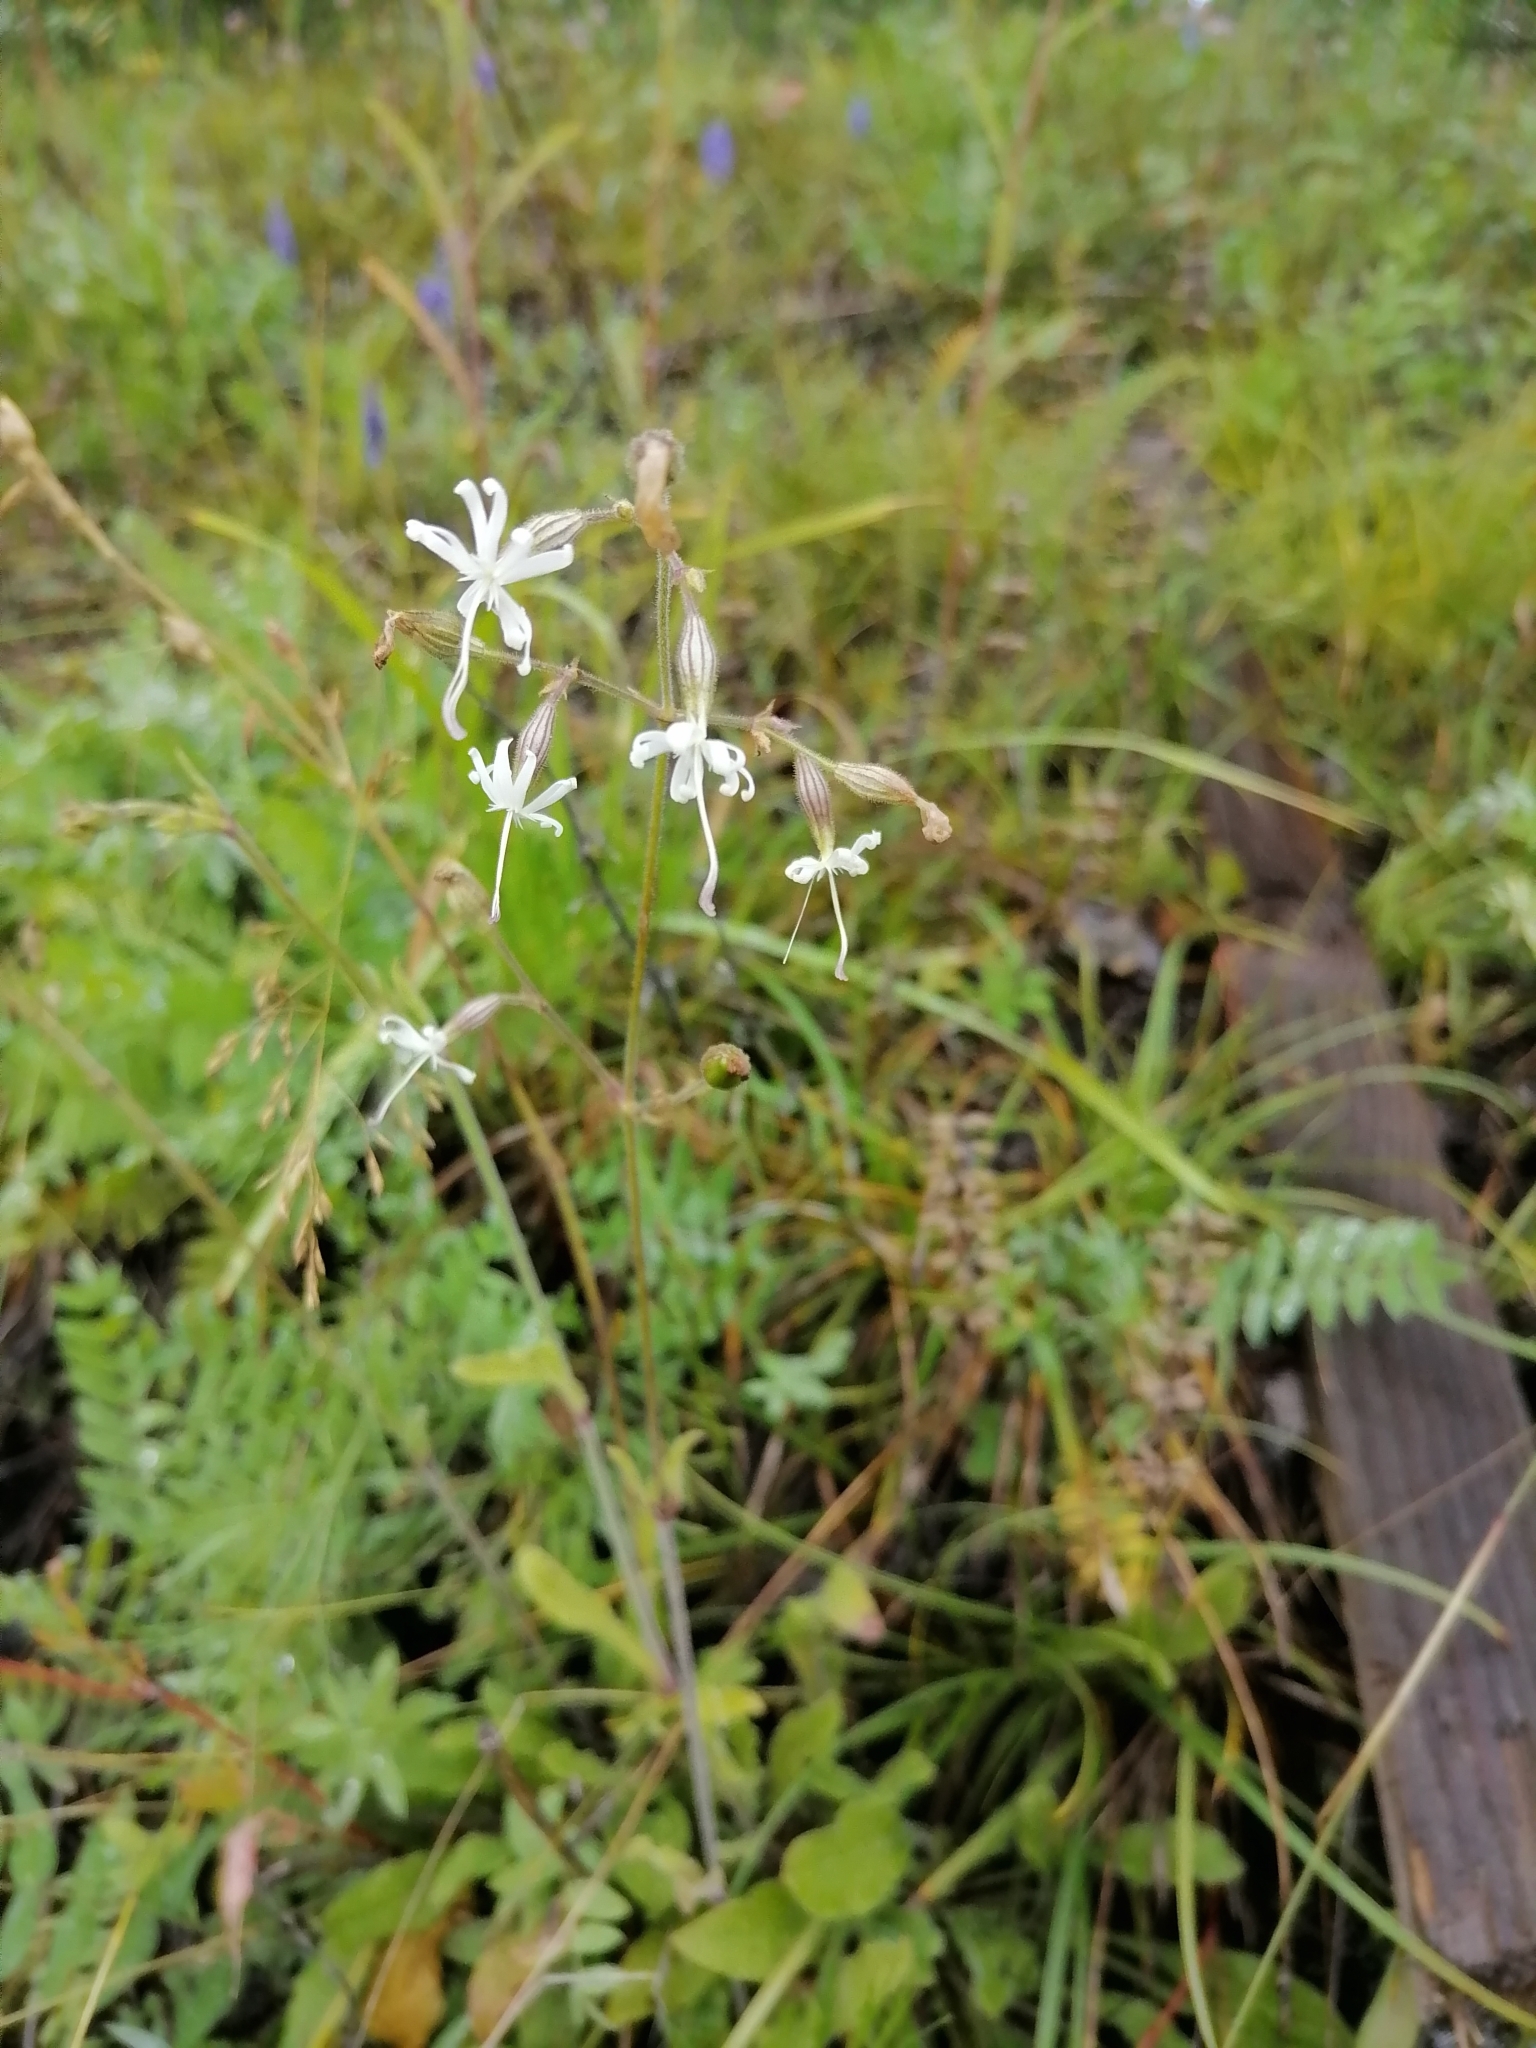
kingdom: Plantae
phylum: Tracheophyta
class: Magnoliopsida
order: Caryophyllales
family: Caryophyllaceae
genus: Silene
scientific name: Silene nutans
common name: Nottingham catchfly
